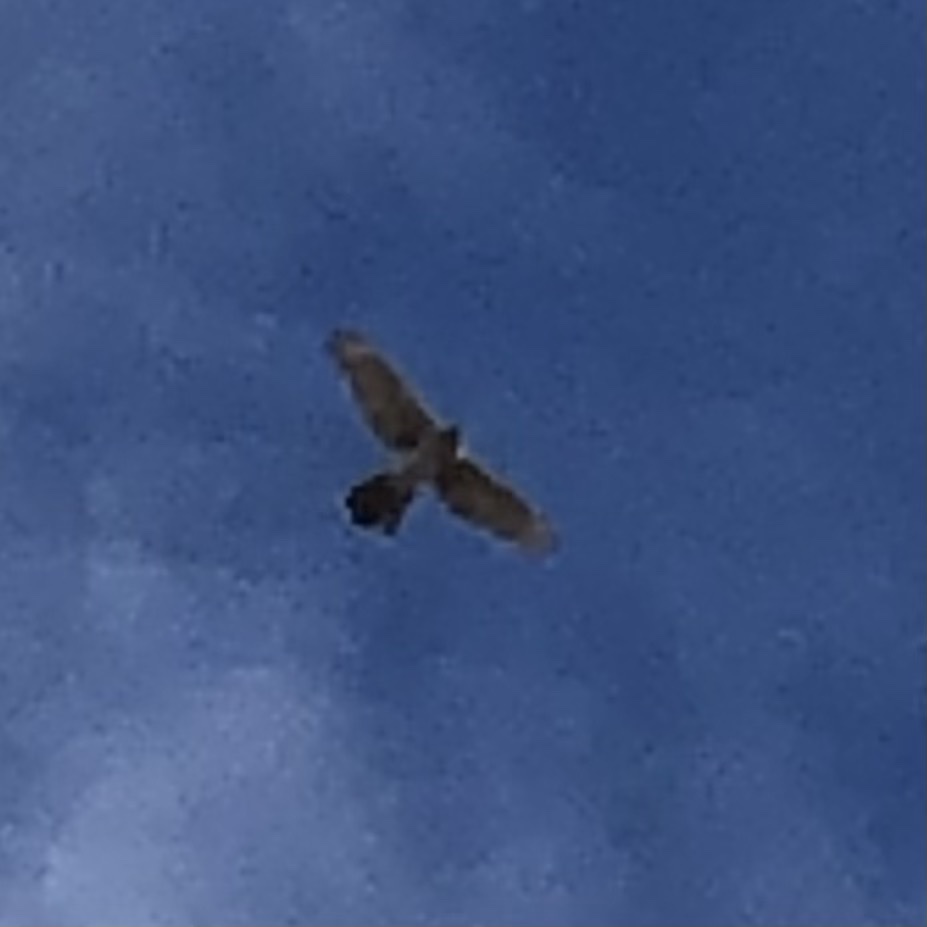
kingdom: Animalia
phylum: Chordata
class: Aves
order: Accipitriformes
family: Accipitridae
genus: Accipiter
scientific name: Accipiter cooperii
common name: Cooper's hawk
